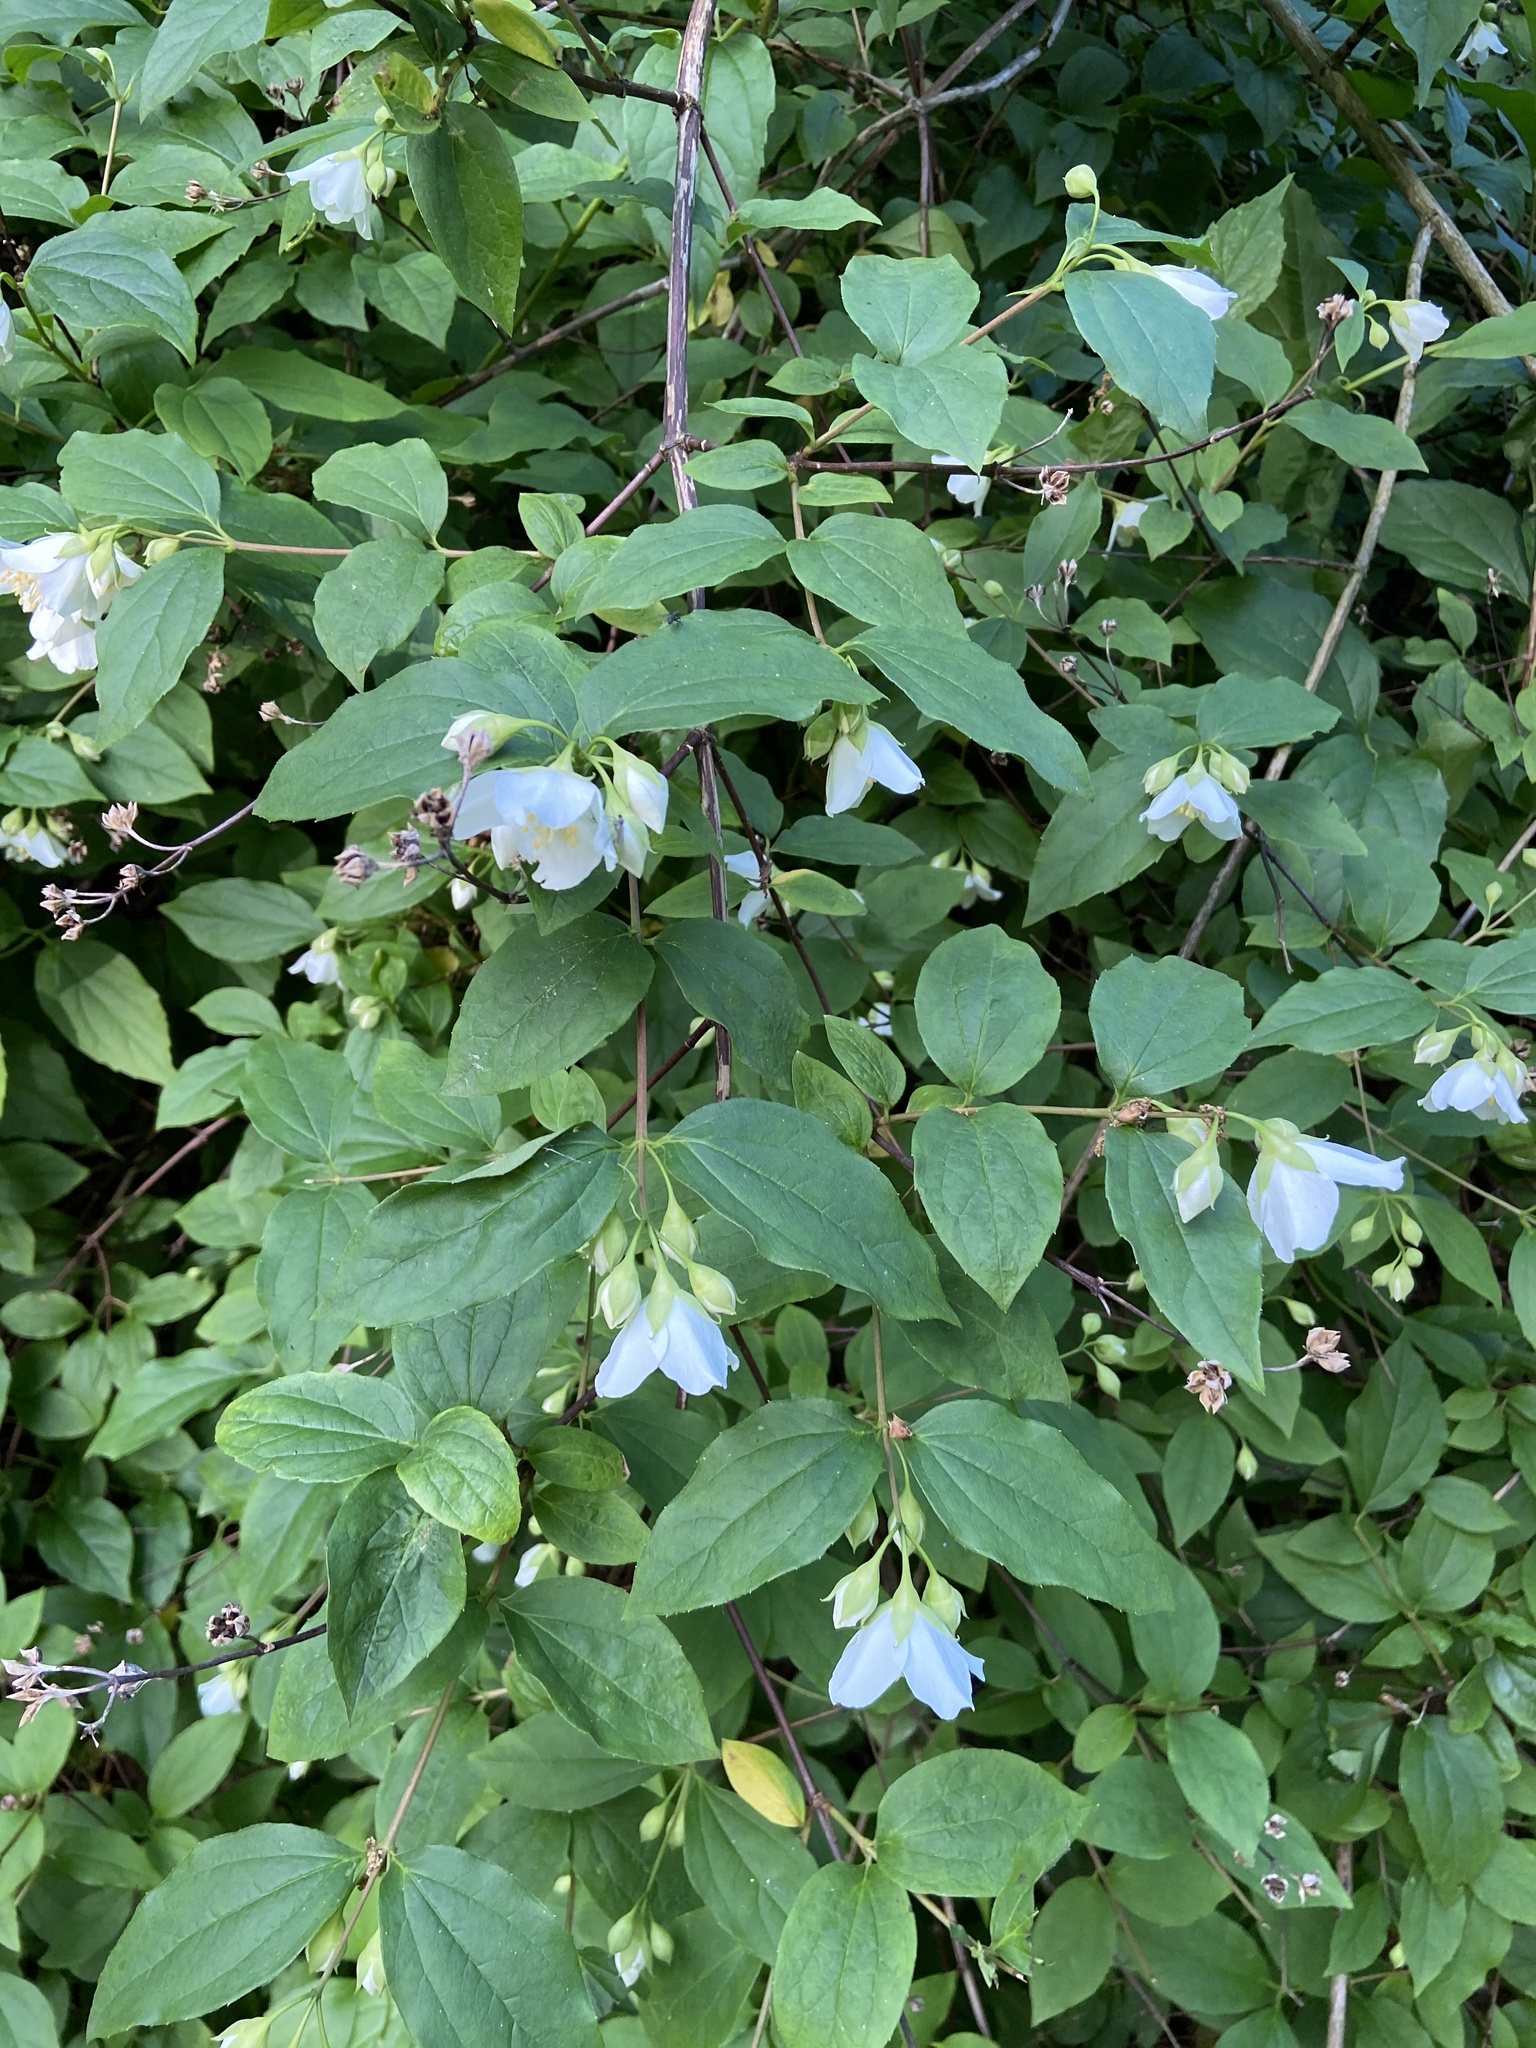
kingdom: Plantae
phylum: Tracheophyta
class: Magnoliopsida
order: Cornales
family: Hydrangeaceae
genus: Philadelphus
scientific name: Philadelphus coronarius
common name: Mock orange
